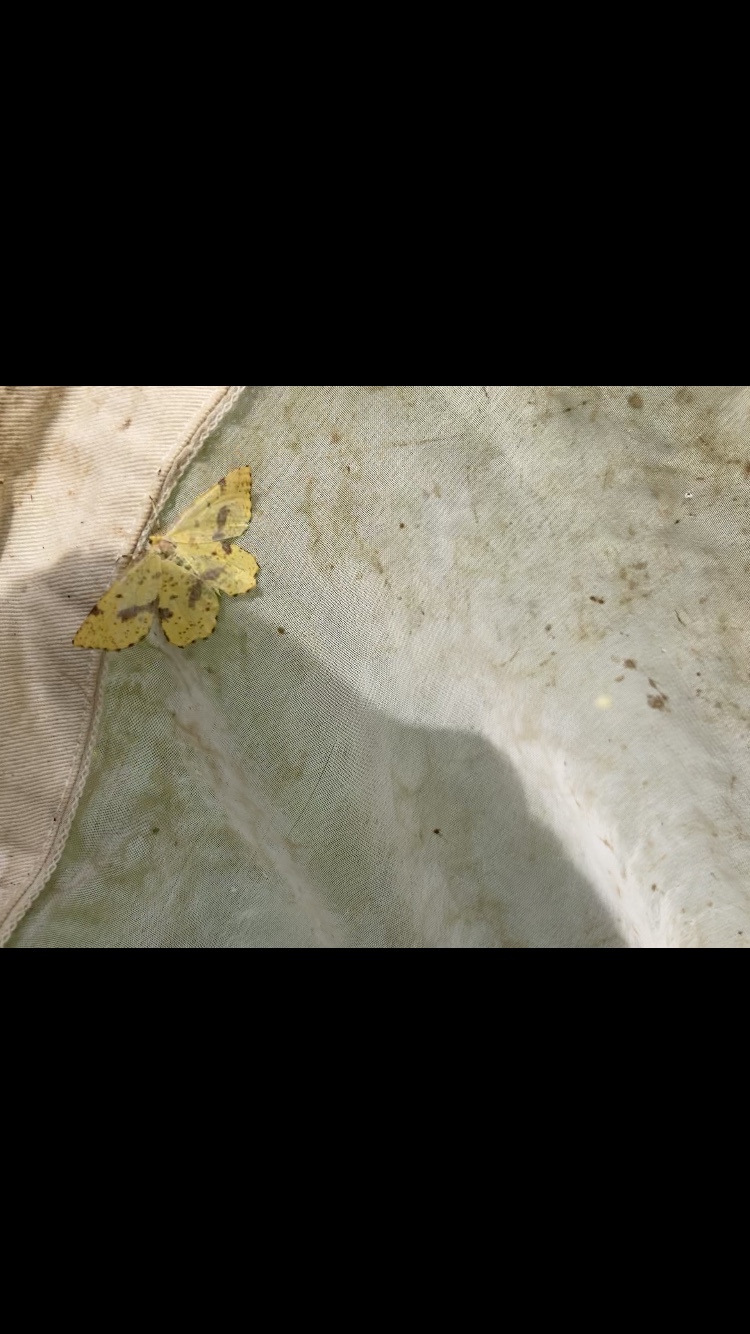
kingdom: Animalia
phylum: Arthropoda
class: Insecta
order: Lepidoptera
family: Geometridae
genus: Xanthotype
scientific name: Xanthotype
